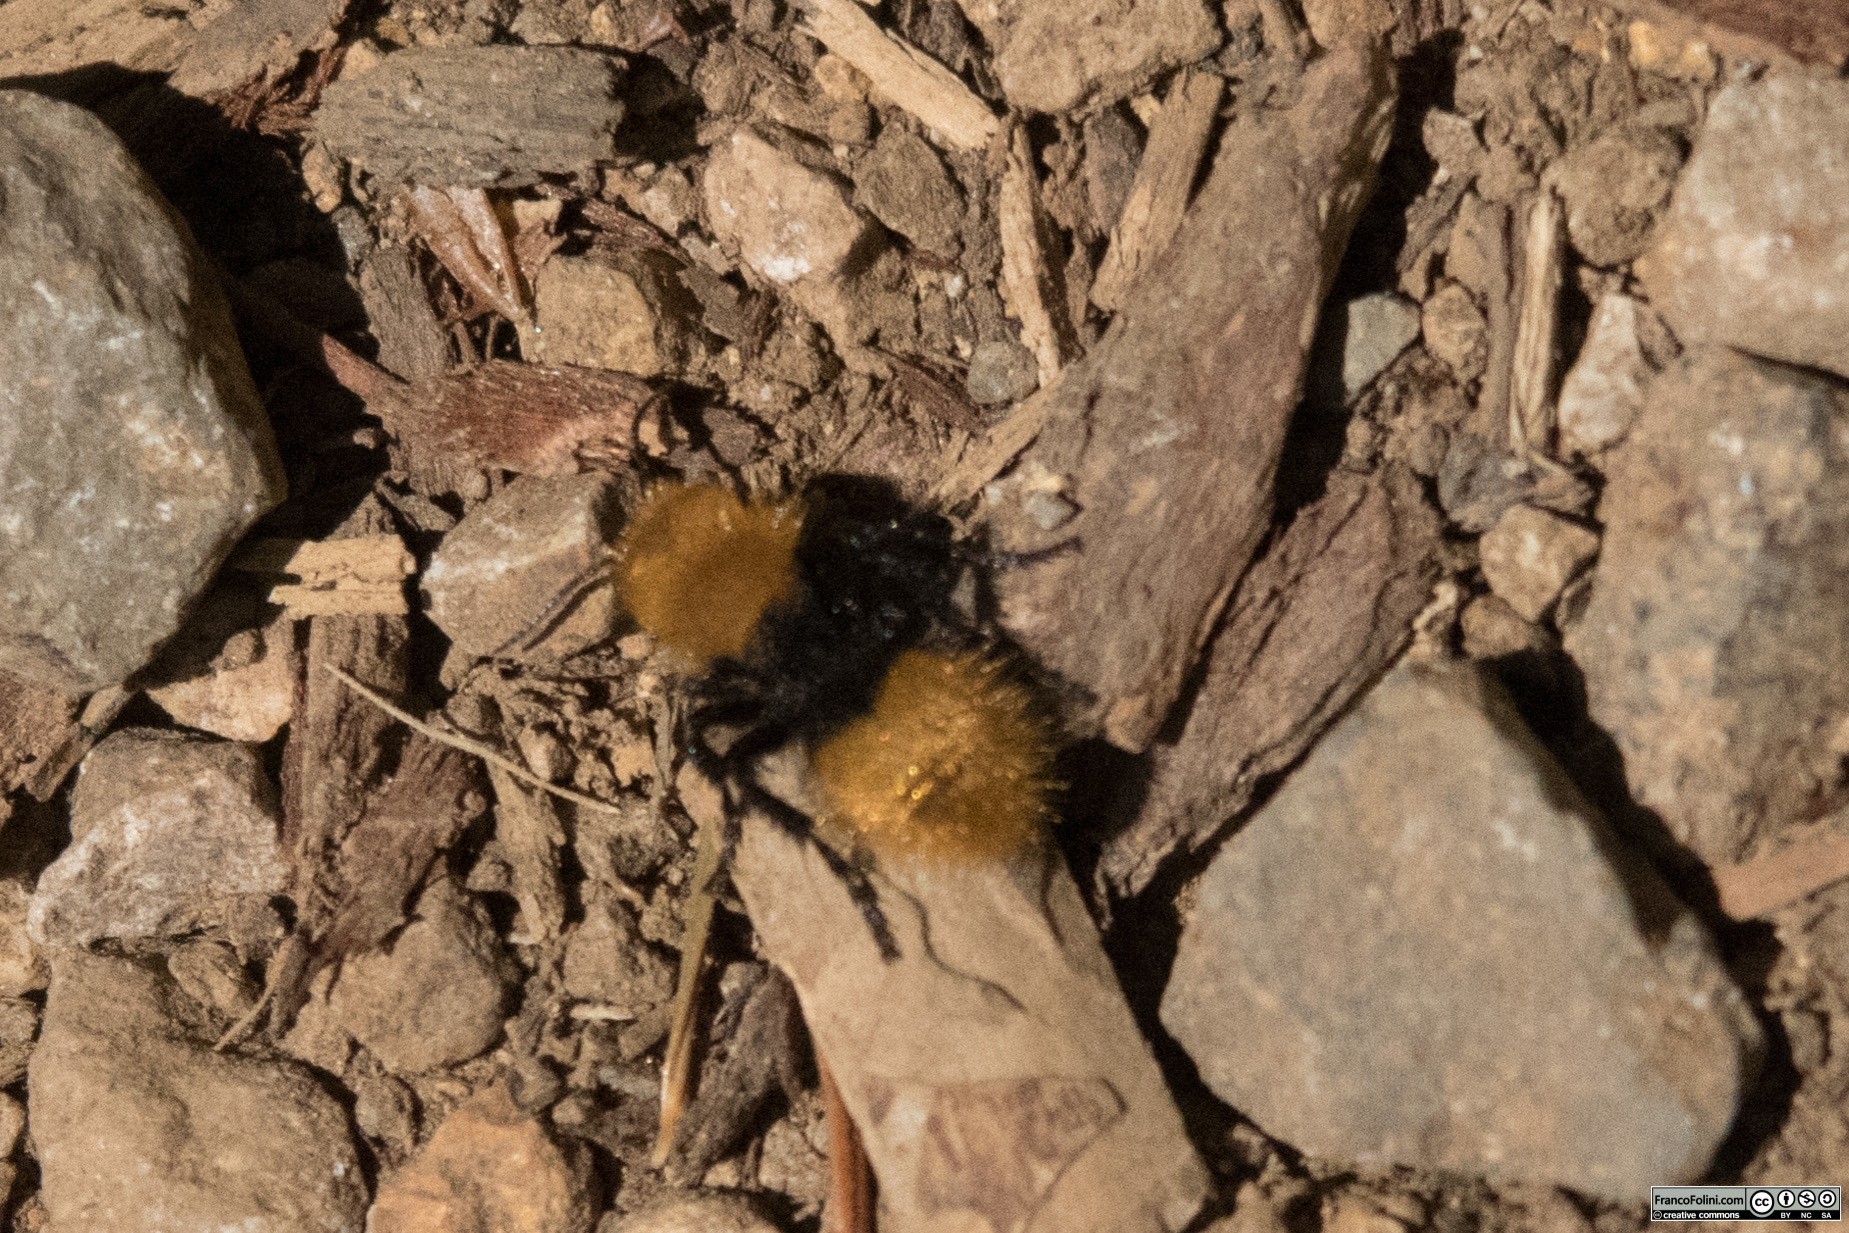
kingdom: Animalia
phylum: Arthropoda
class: Insecta
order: Hymenoptera
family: Mutillidae
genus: Dasymutilla
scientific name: Dasymutilla
